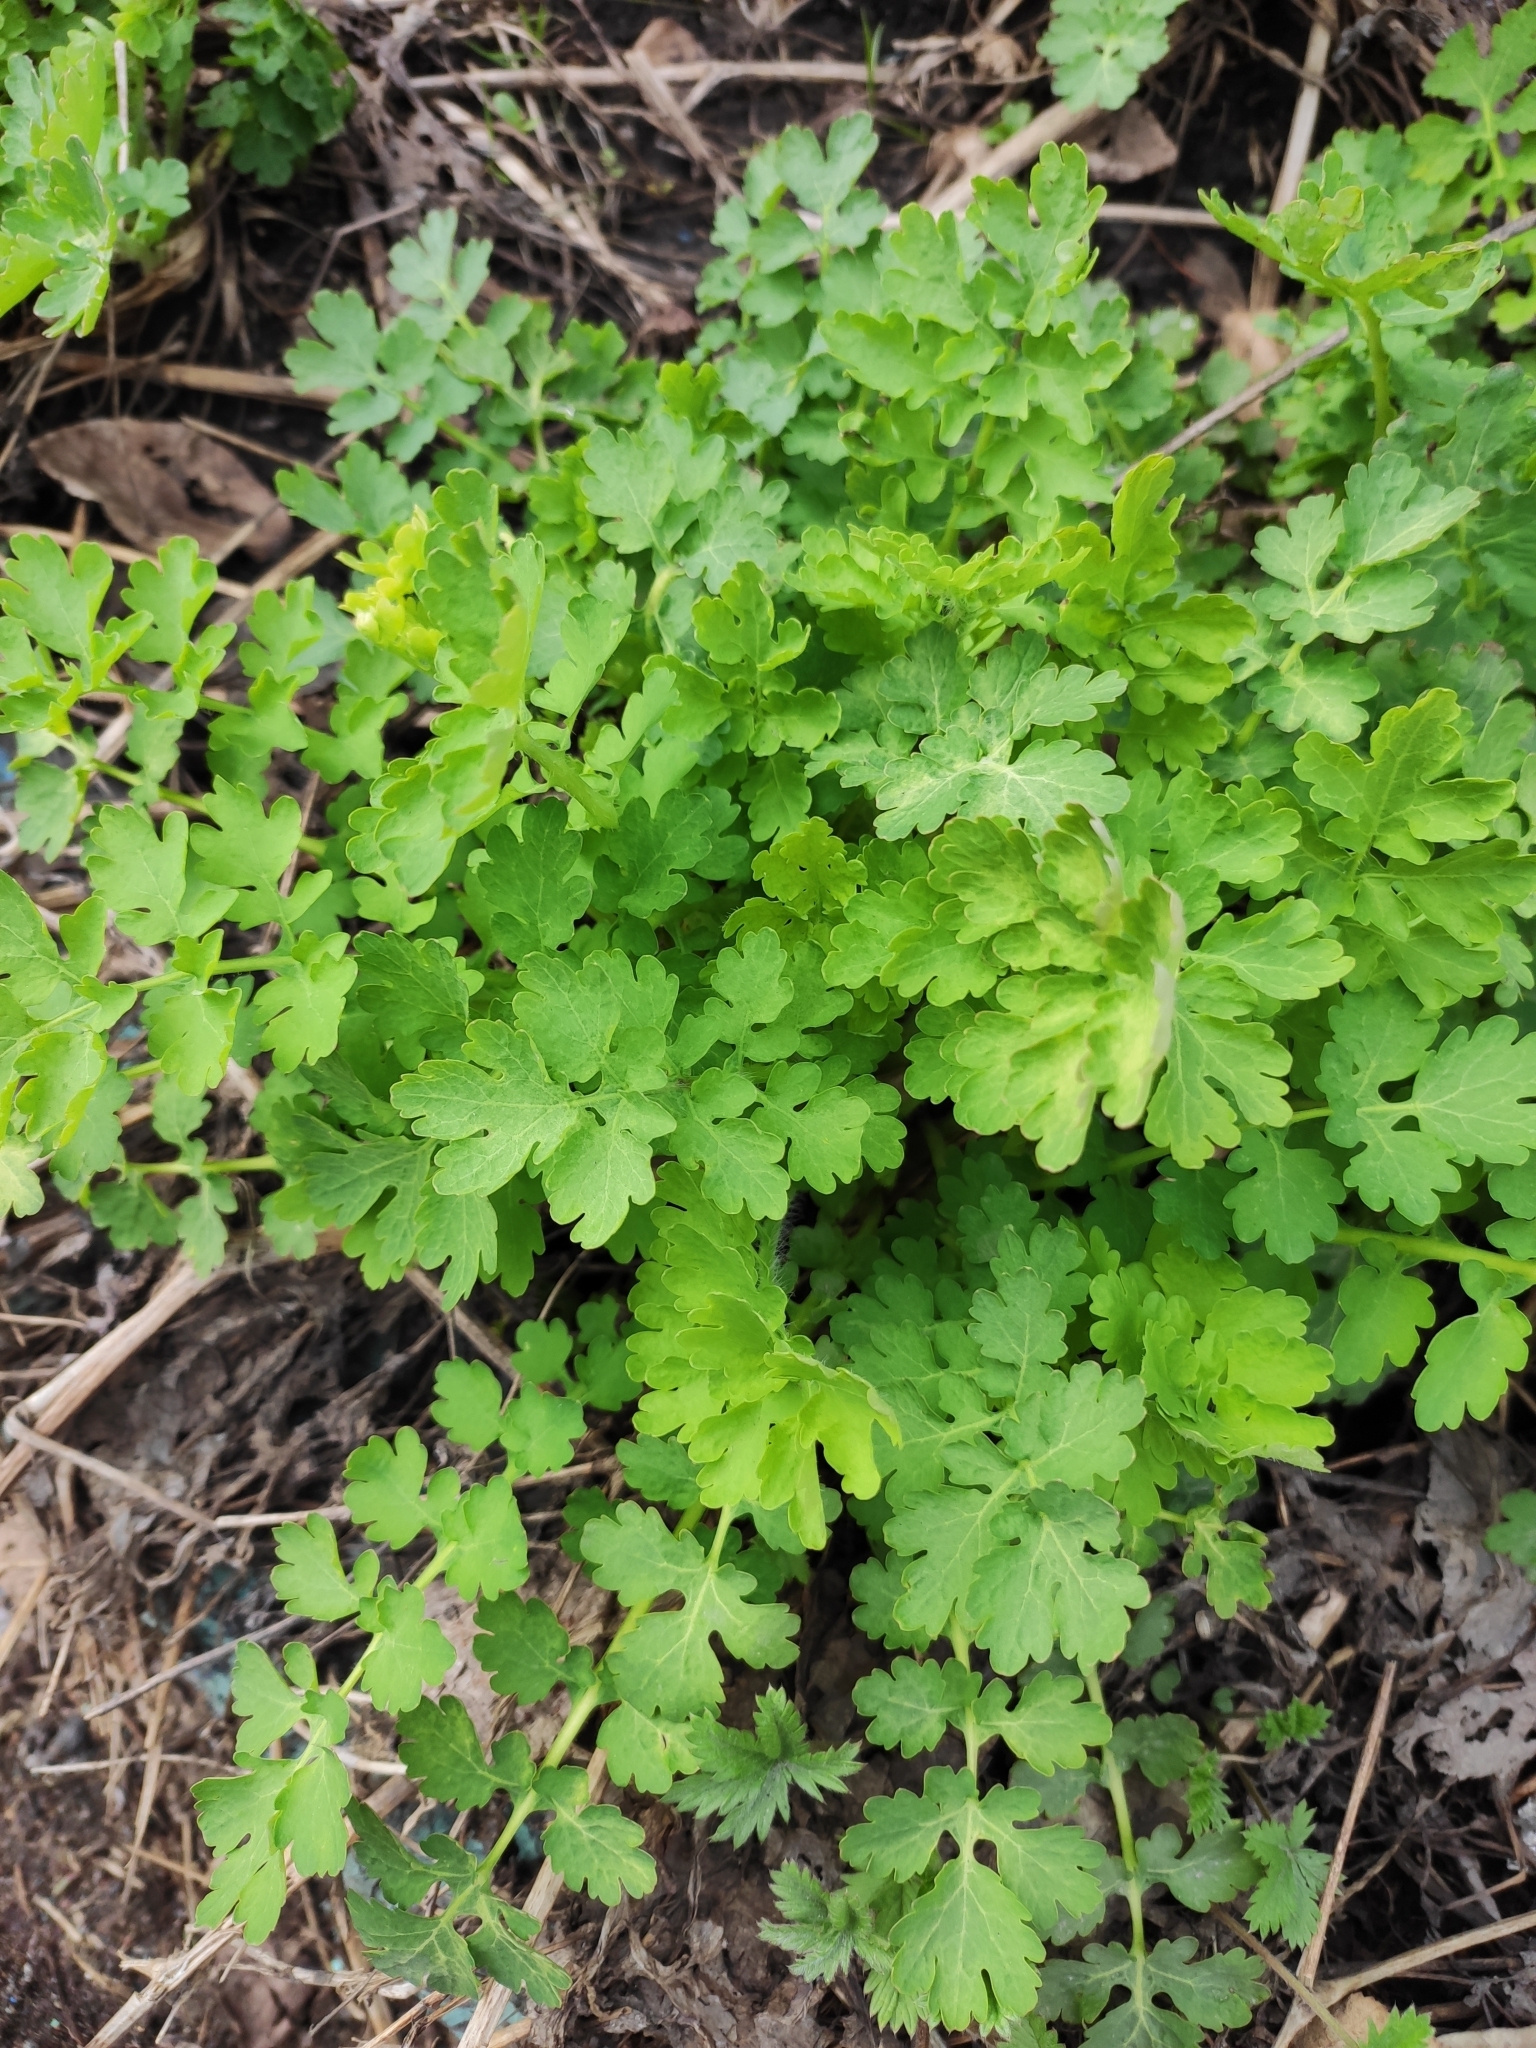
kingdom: Plantae
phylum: Tracheophyta
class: Magnoliopsida
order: Ranunculales
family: Papaveraceae
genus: Chelidonium
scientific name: Chelidonium majus
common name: Greater celandine
